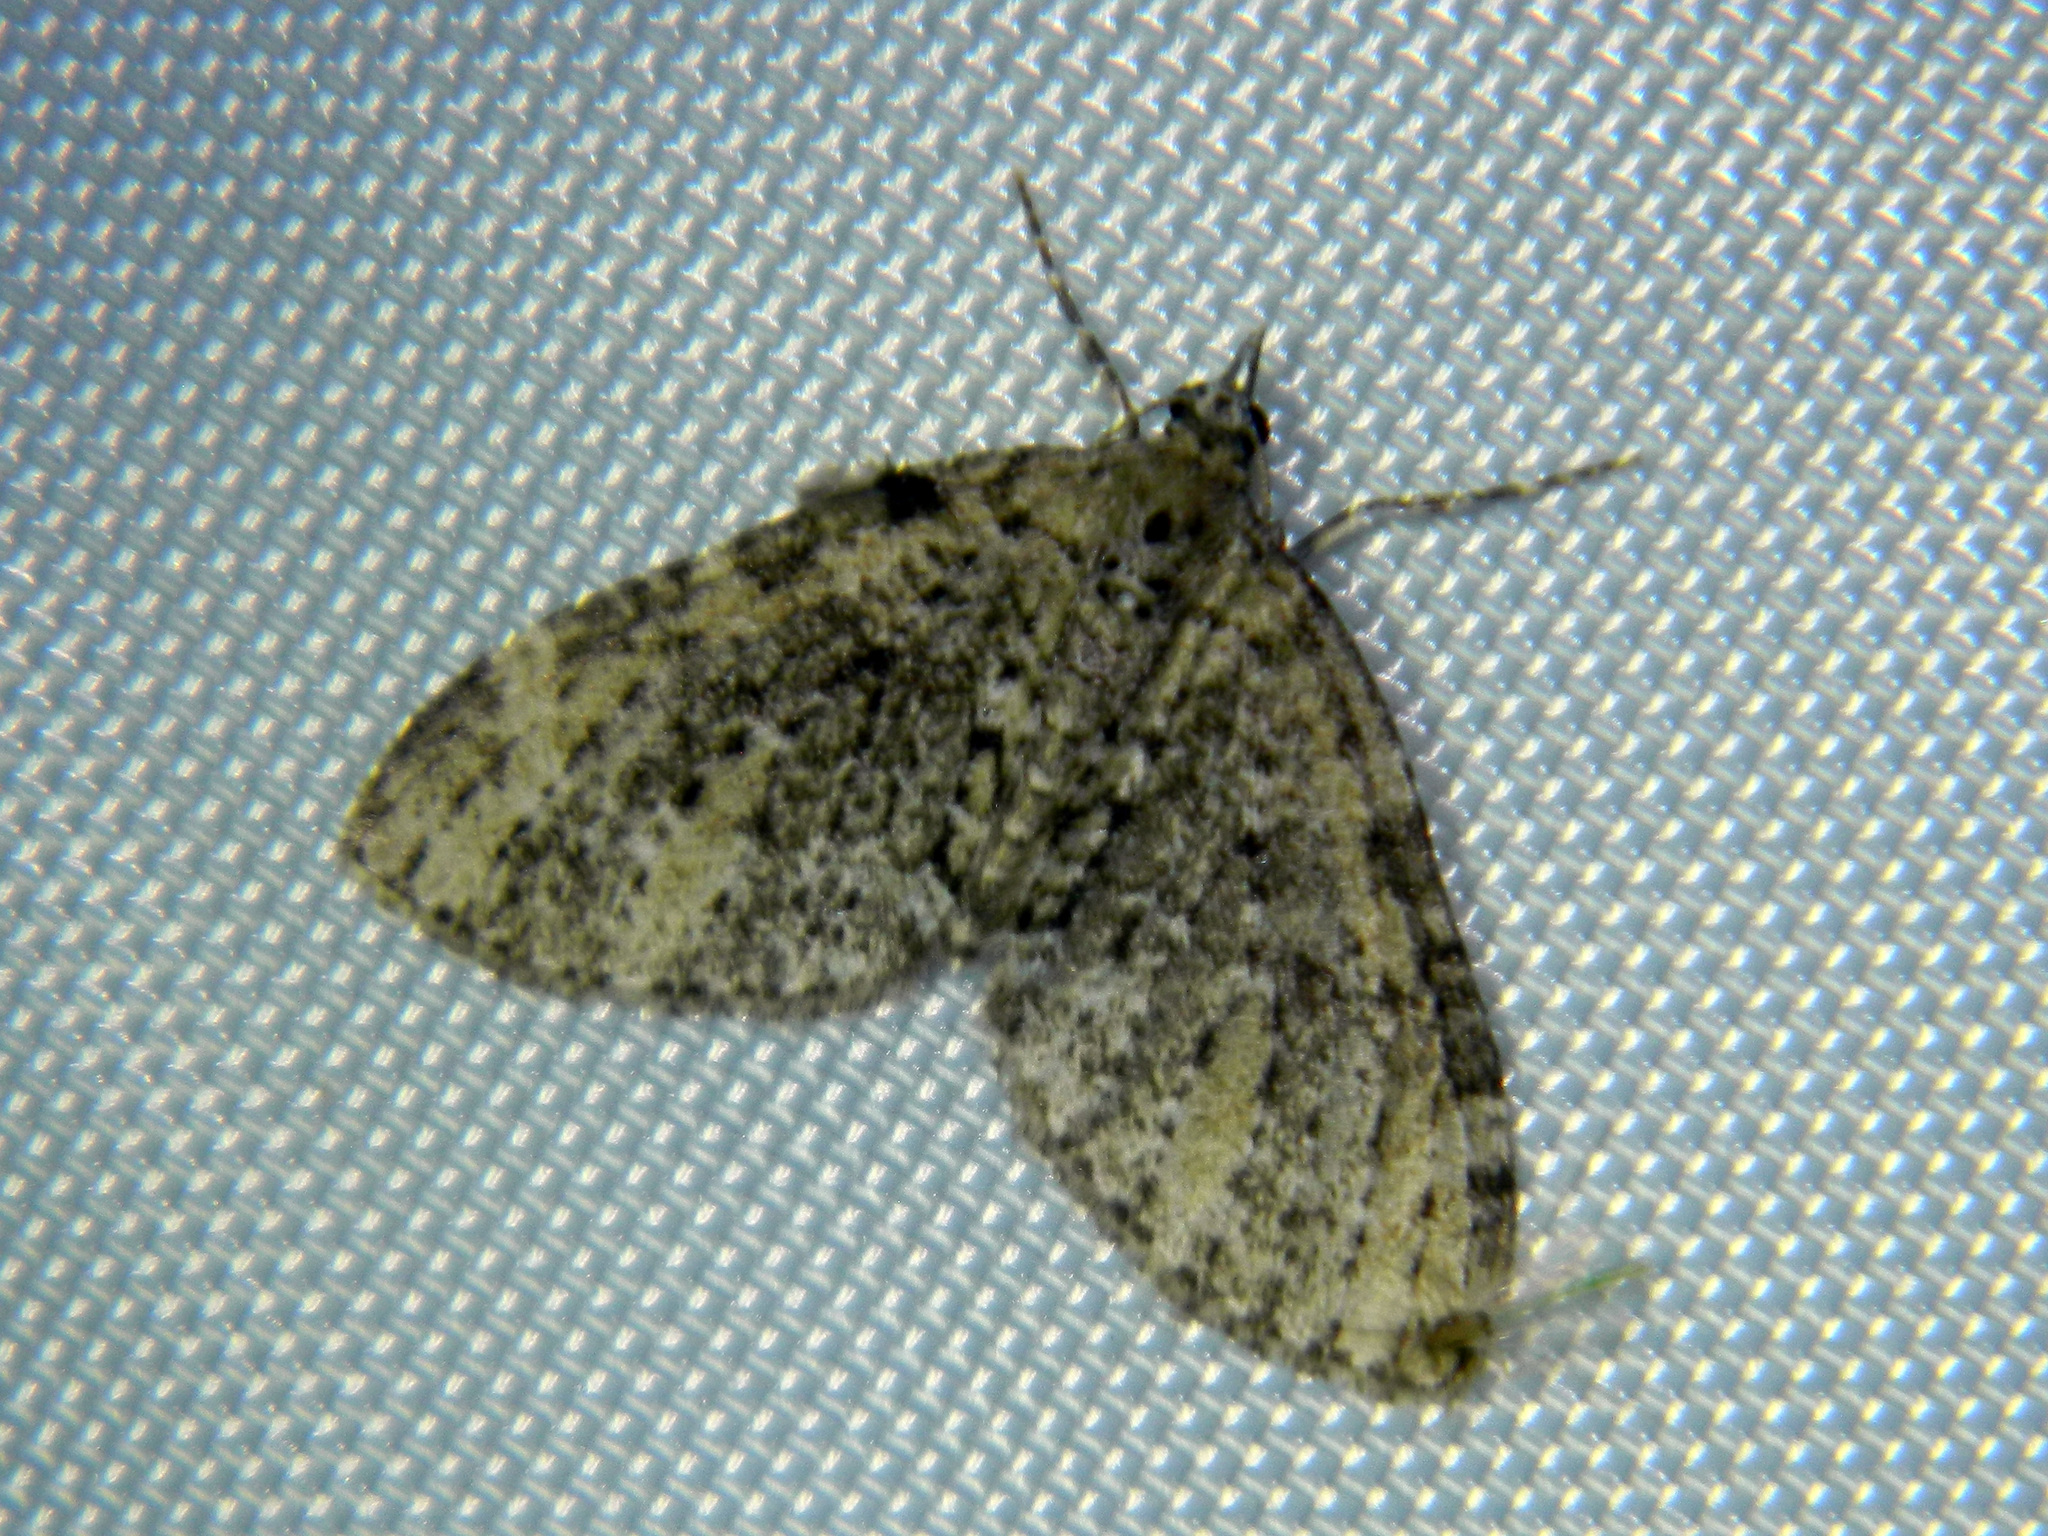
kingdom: Animalia
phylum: Arthropoda
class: Insecta
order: Lepidoptera
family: Geometridae
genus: Acasis
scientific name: Acasis viridata
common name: Olive-and-black carpet moth
